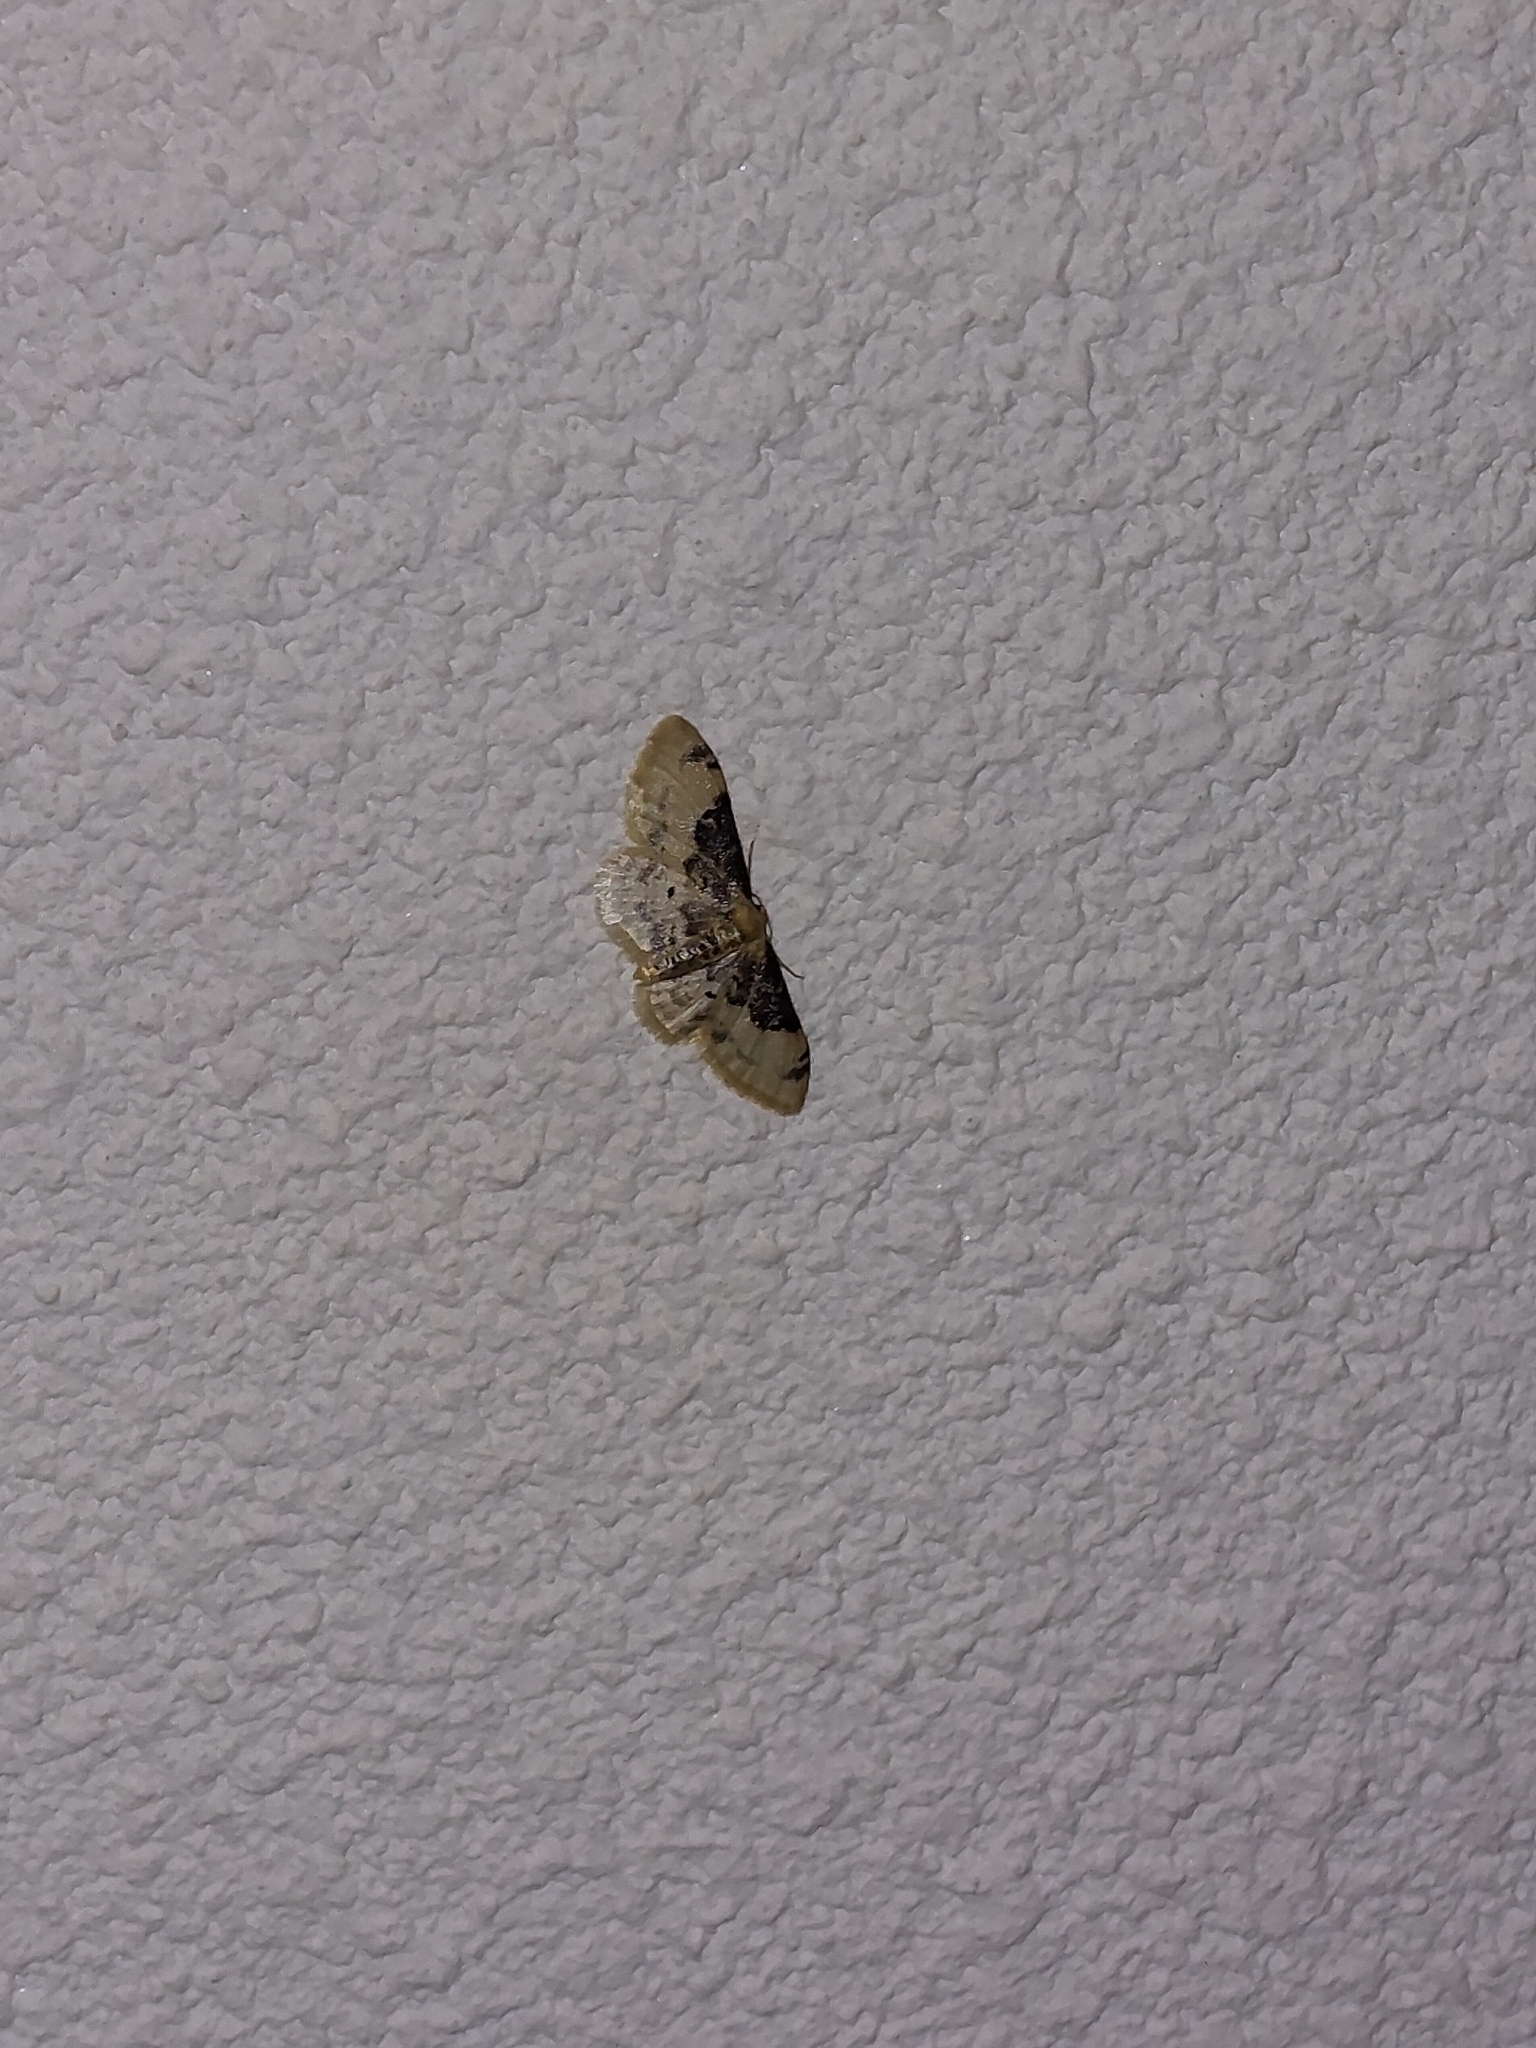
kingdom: Animalia
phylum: Arthropoda
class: Insecta
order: Lepidoptera
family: Geometridae
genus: Idaea
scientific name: Idaea filicata
